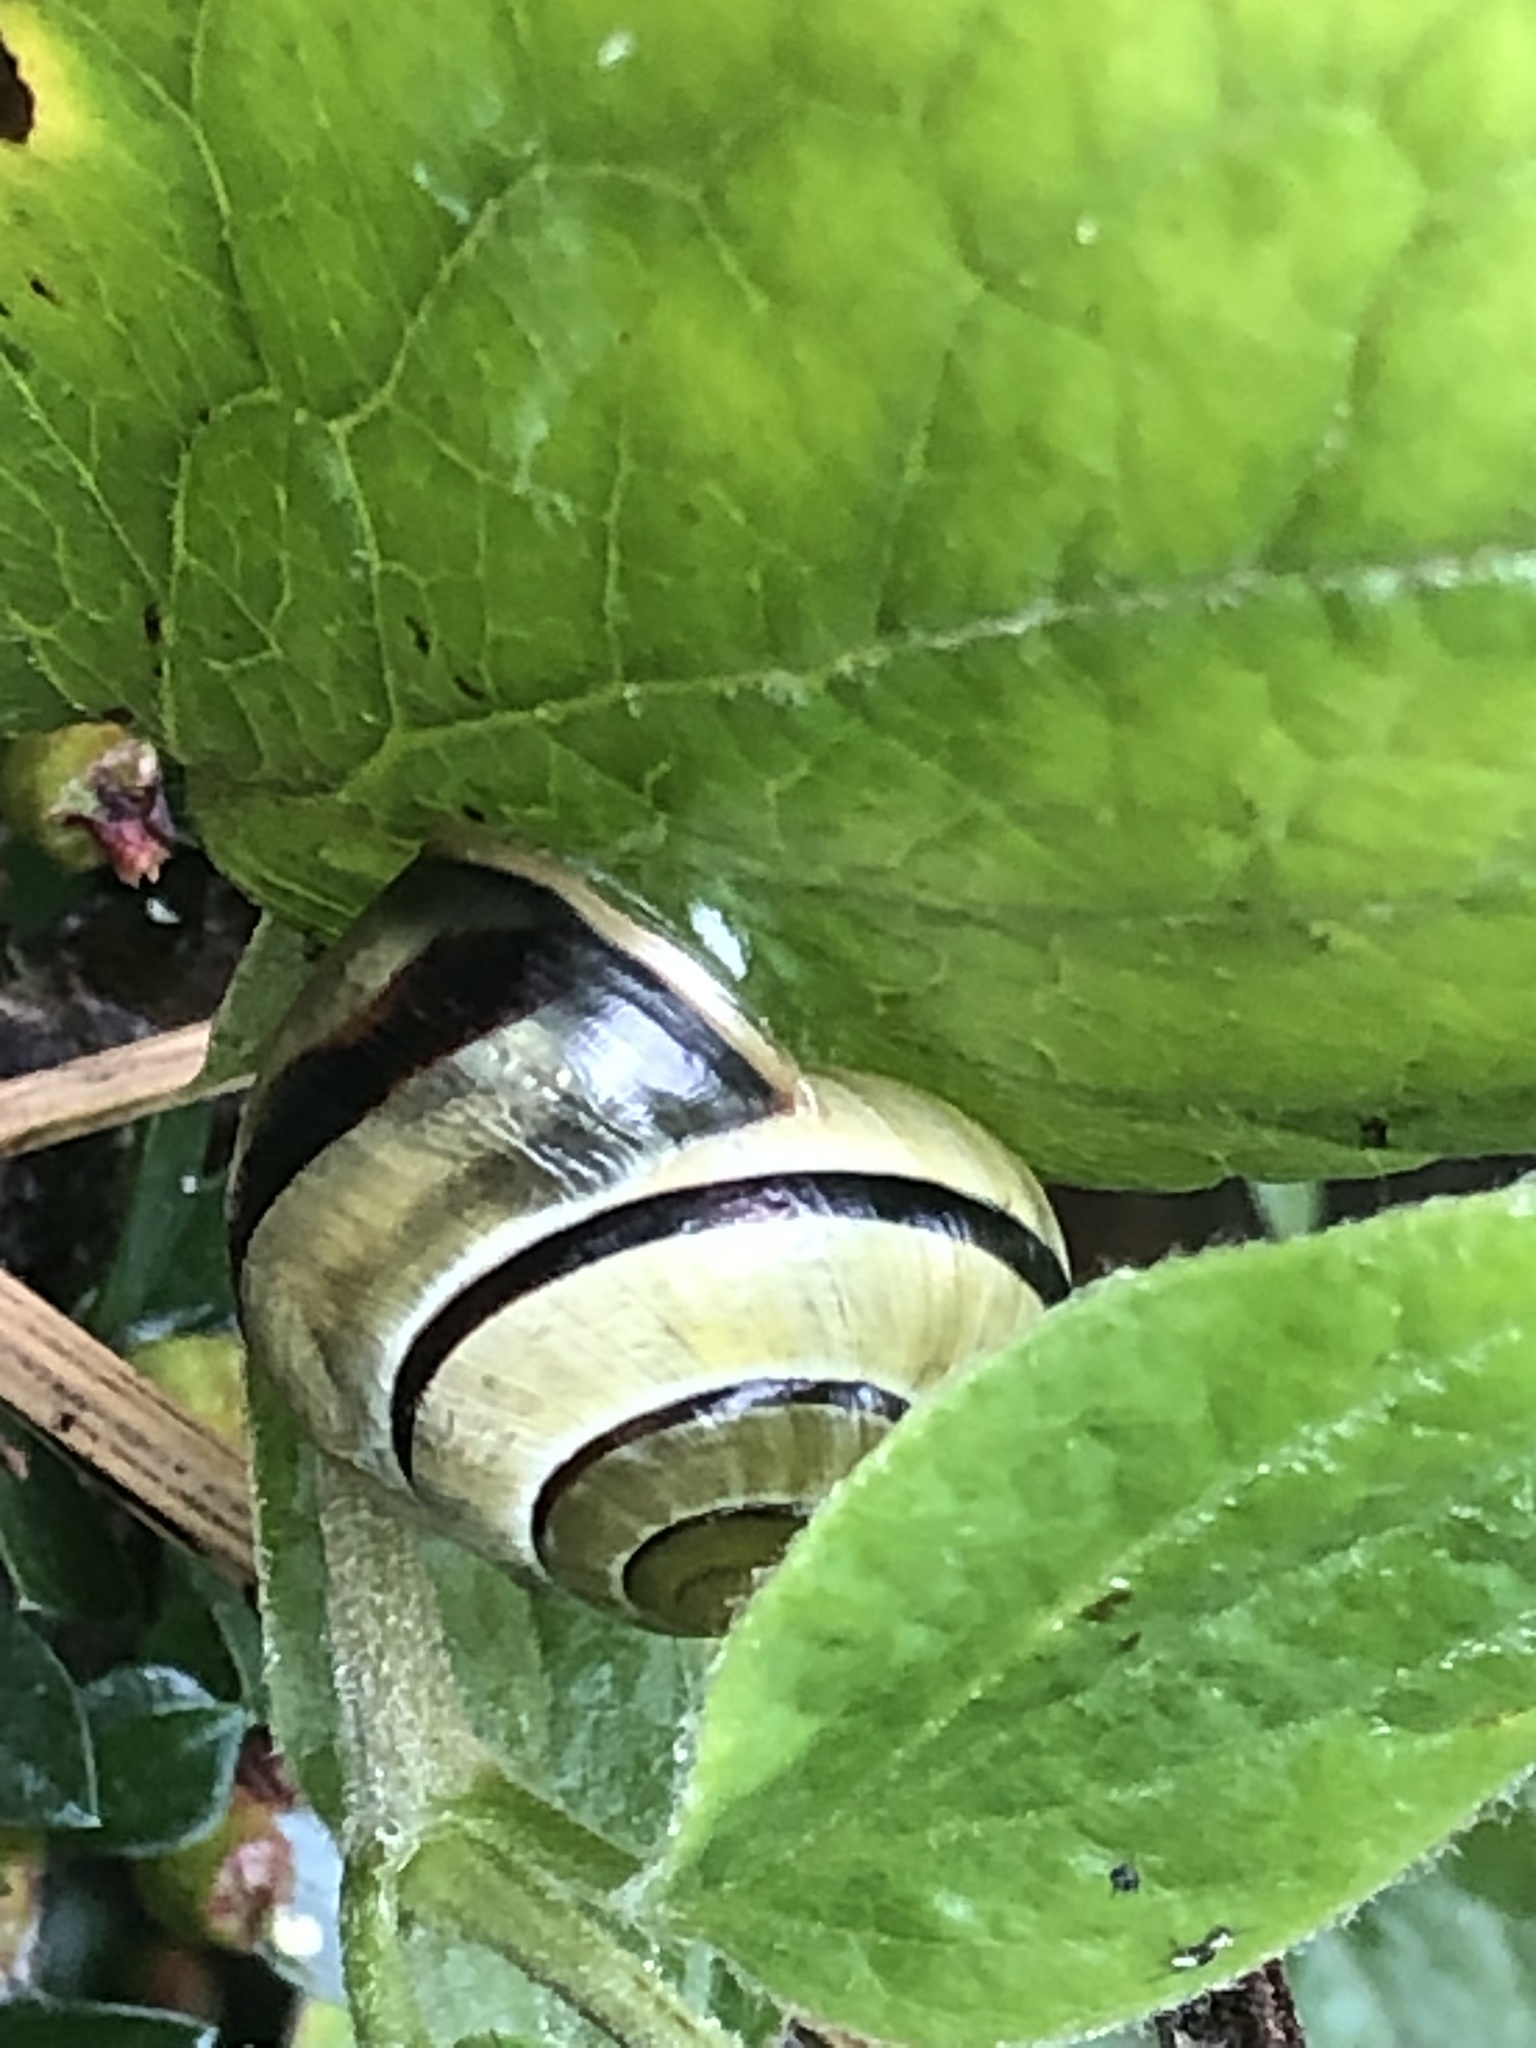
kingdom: Animalia
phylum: Mollusca
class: Gastropoda
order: Stylommatophora
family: Helicidae
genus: Cepaea
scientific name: Cepaea nemoralis
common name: Grovesnail
